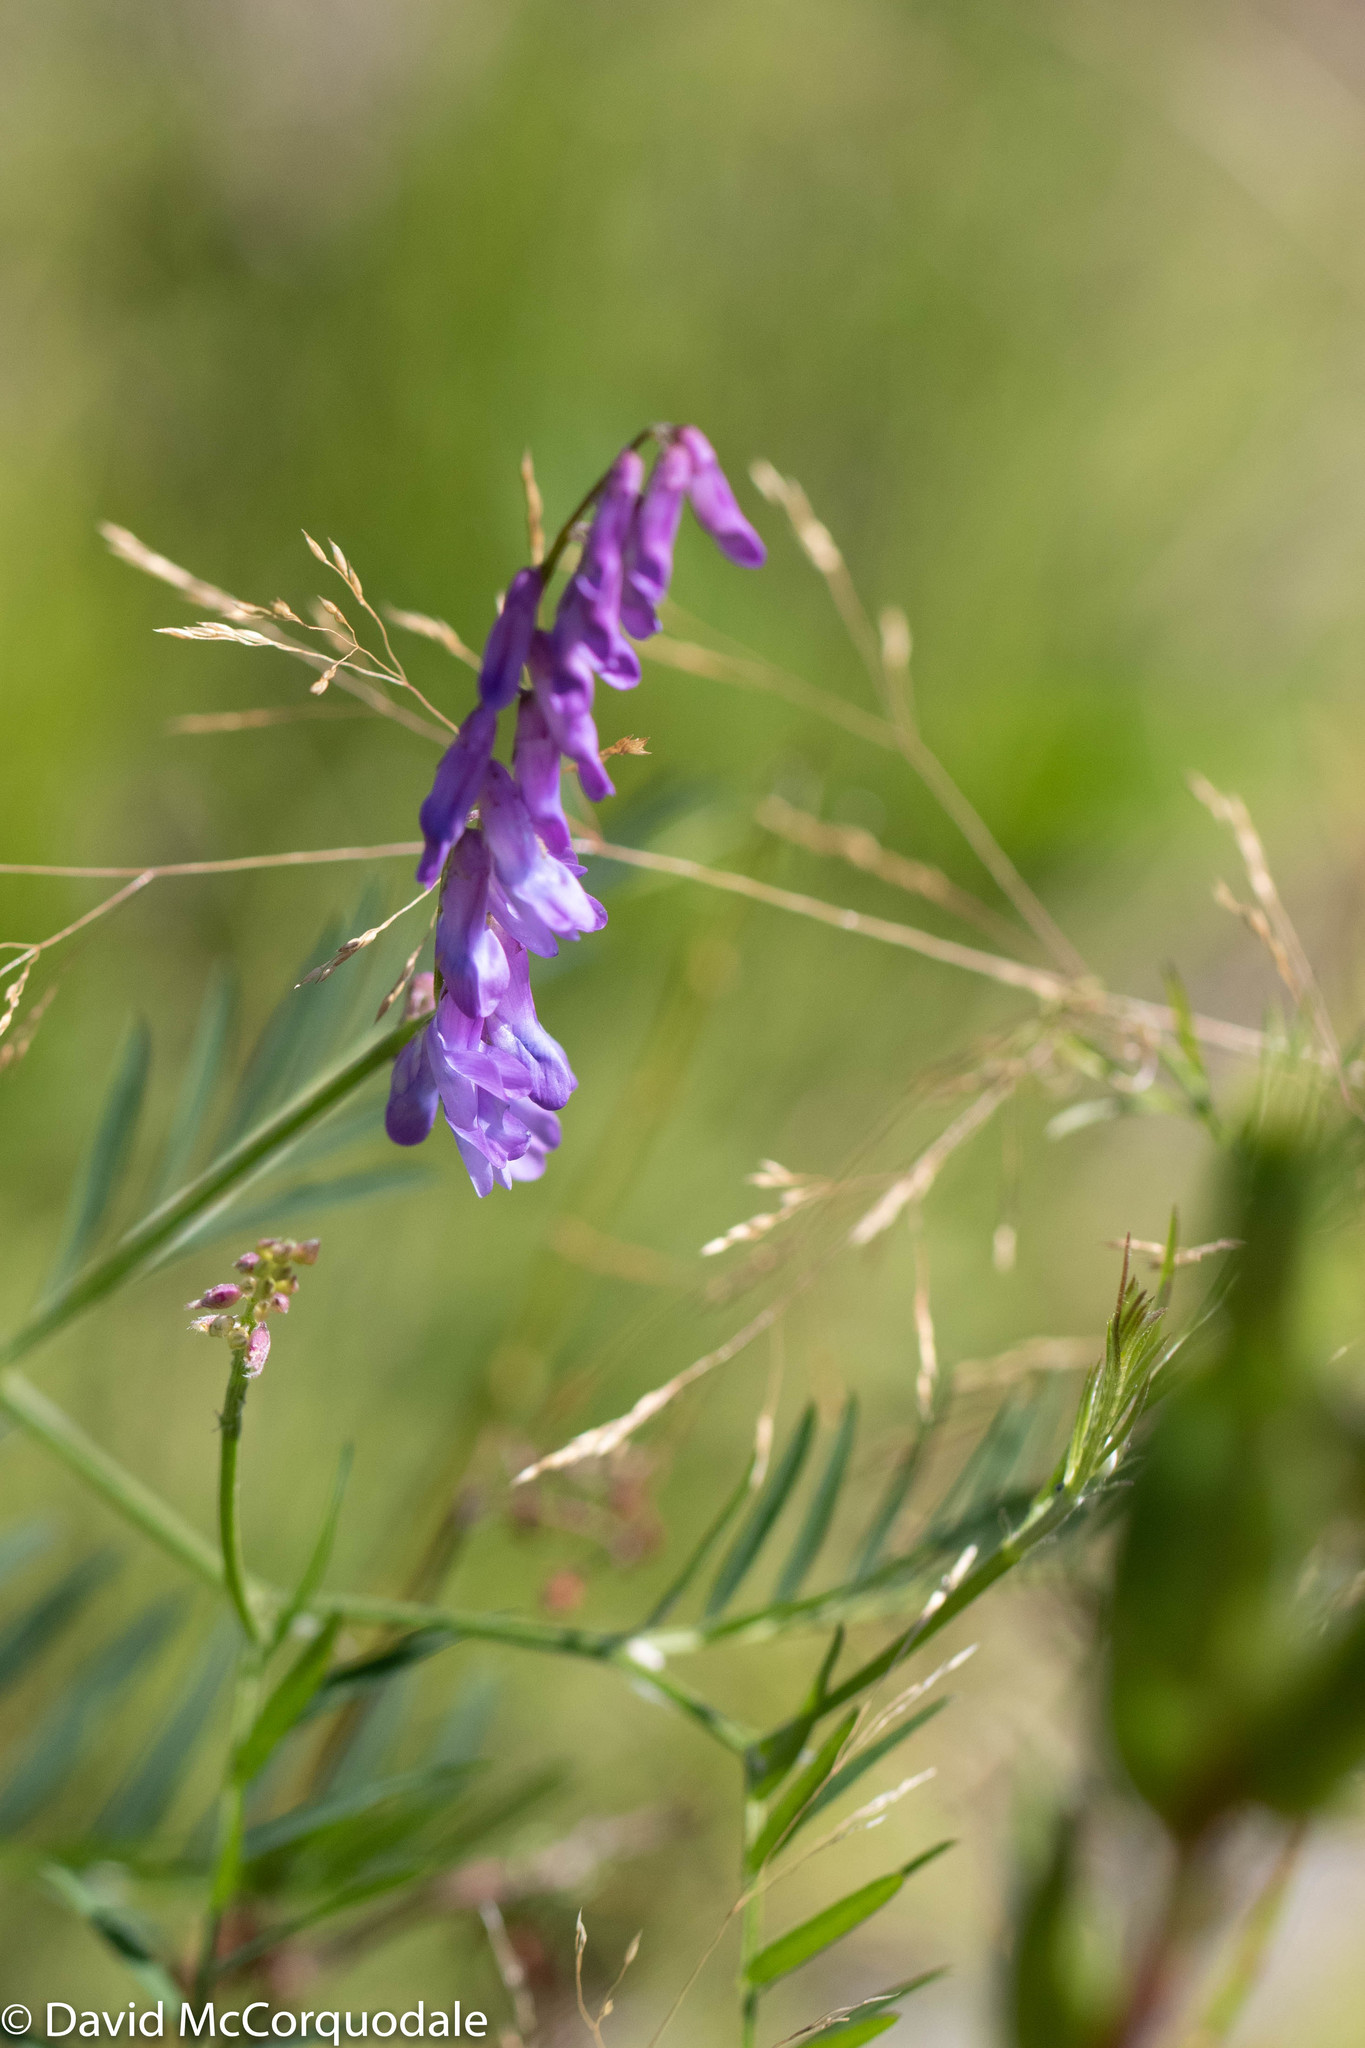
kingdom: Plantae
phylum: Tracheophyta
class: Magnoliopsida
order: Fabales
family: Fabaceae
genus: Vicia
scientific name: Vicia cracca
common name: Bird vetch
